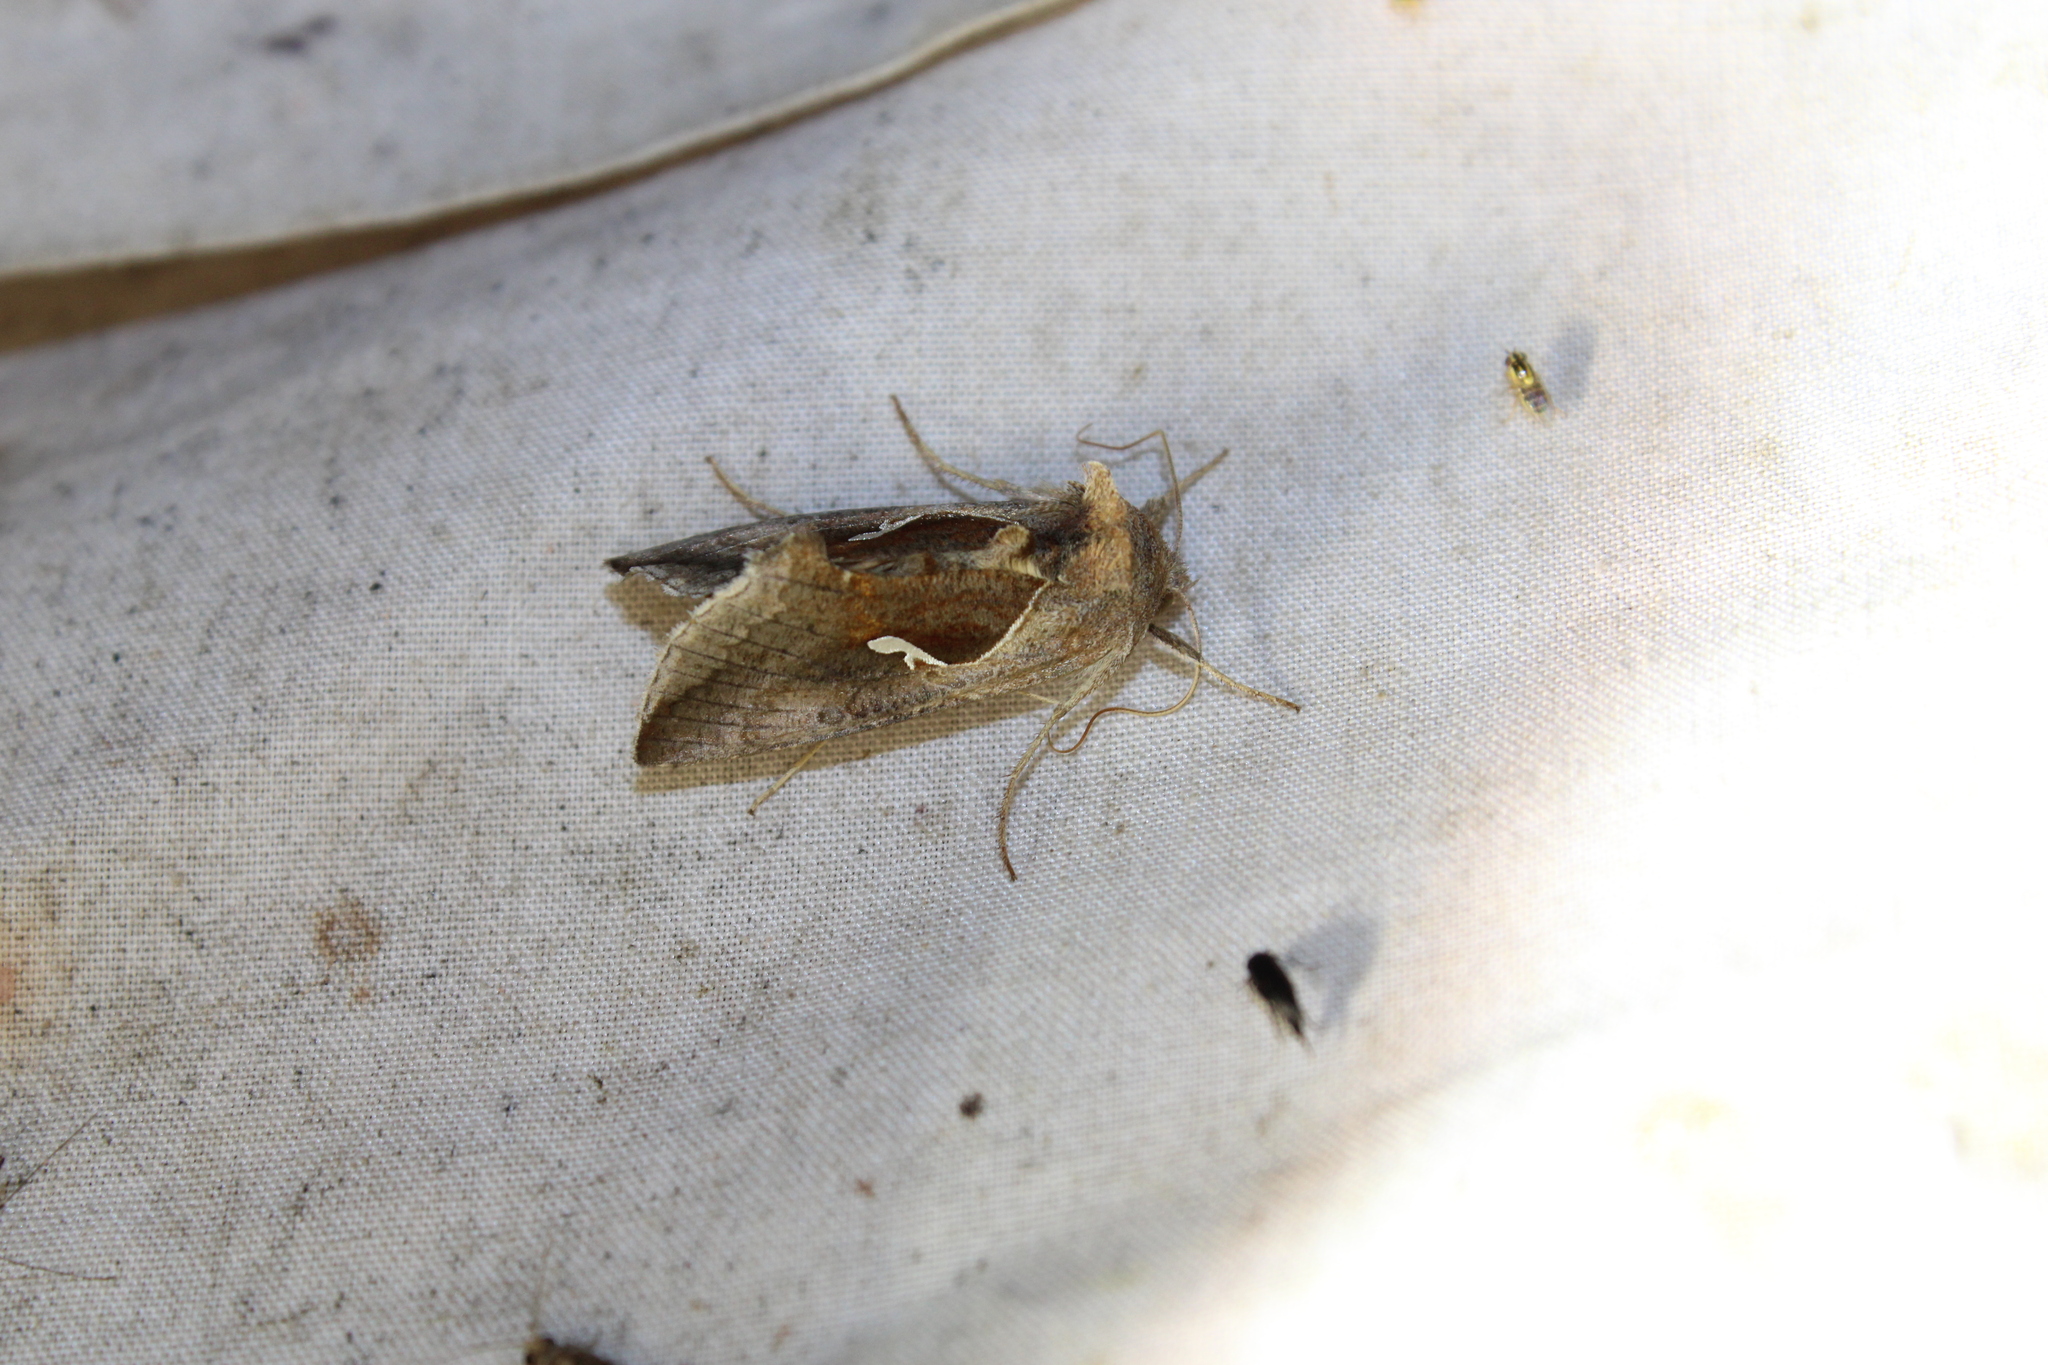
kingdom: Animalia
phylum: Arthropoda
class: Insecta
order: Lepidoptera
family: Noctuidae
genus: Anagrapha
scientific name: Anagrapha falcifera
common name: Celery looper
